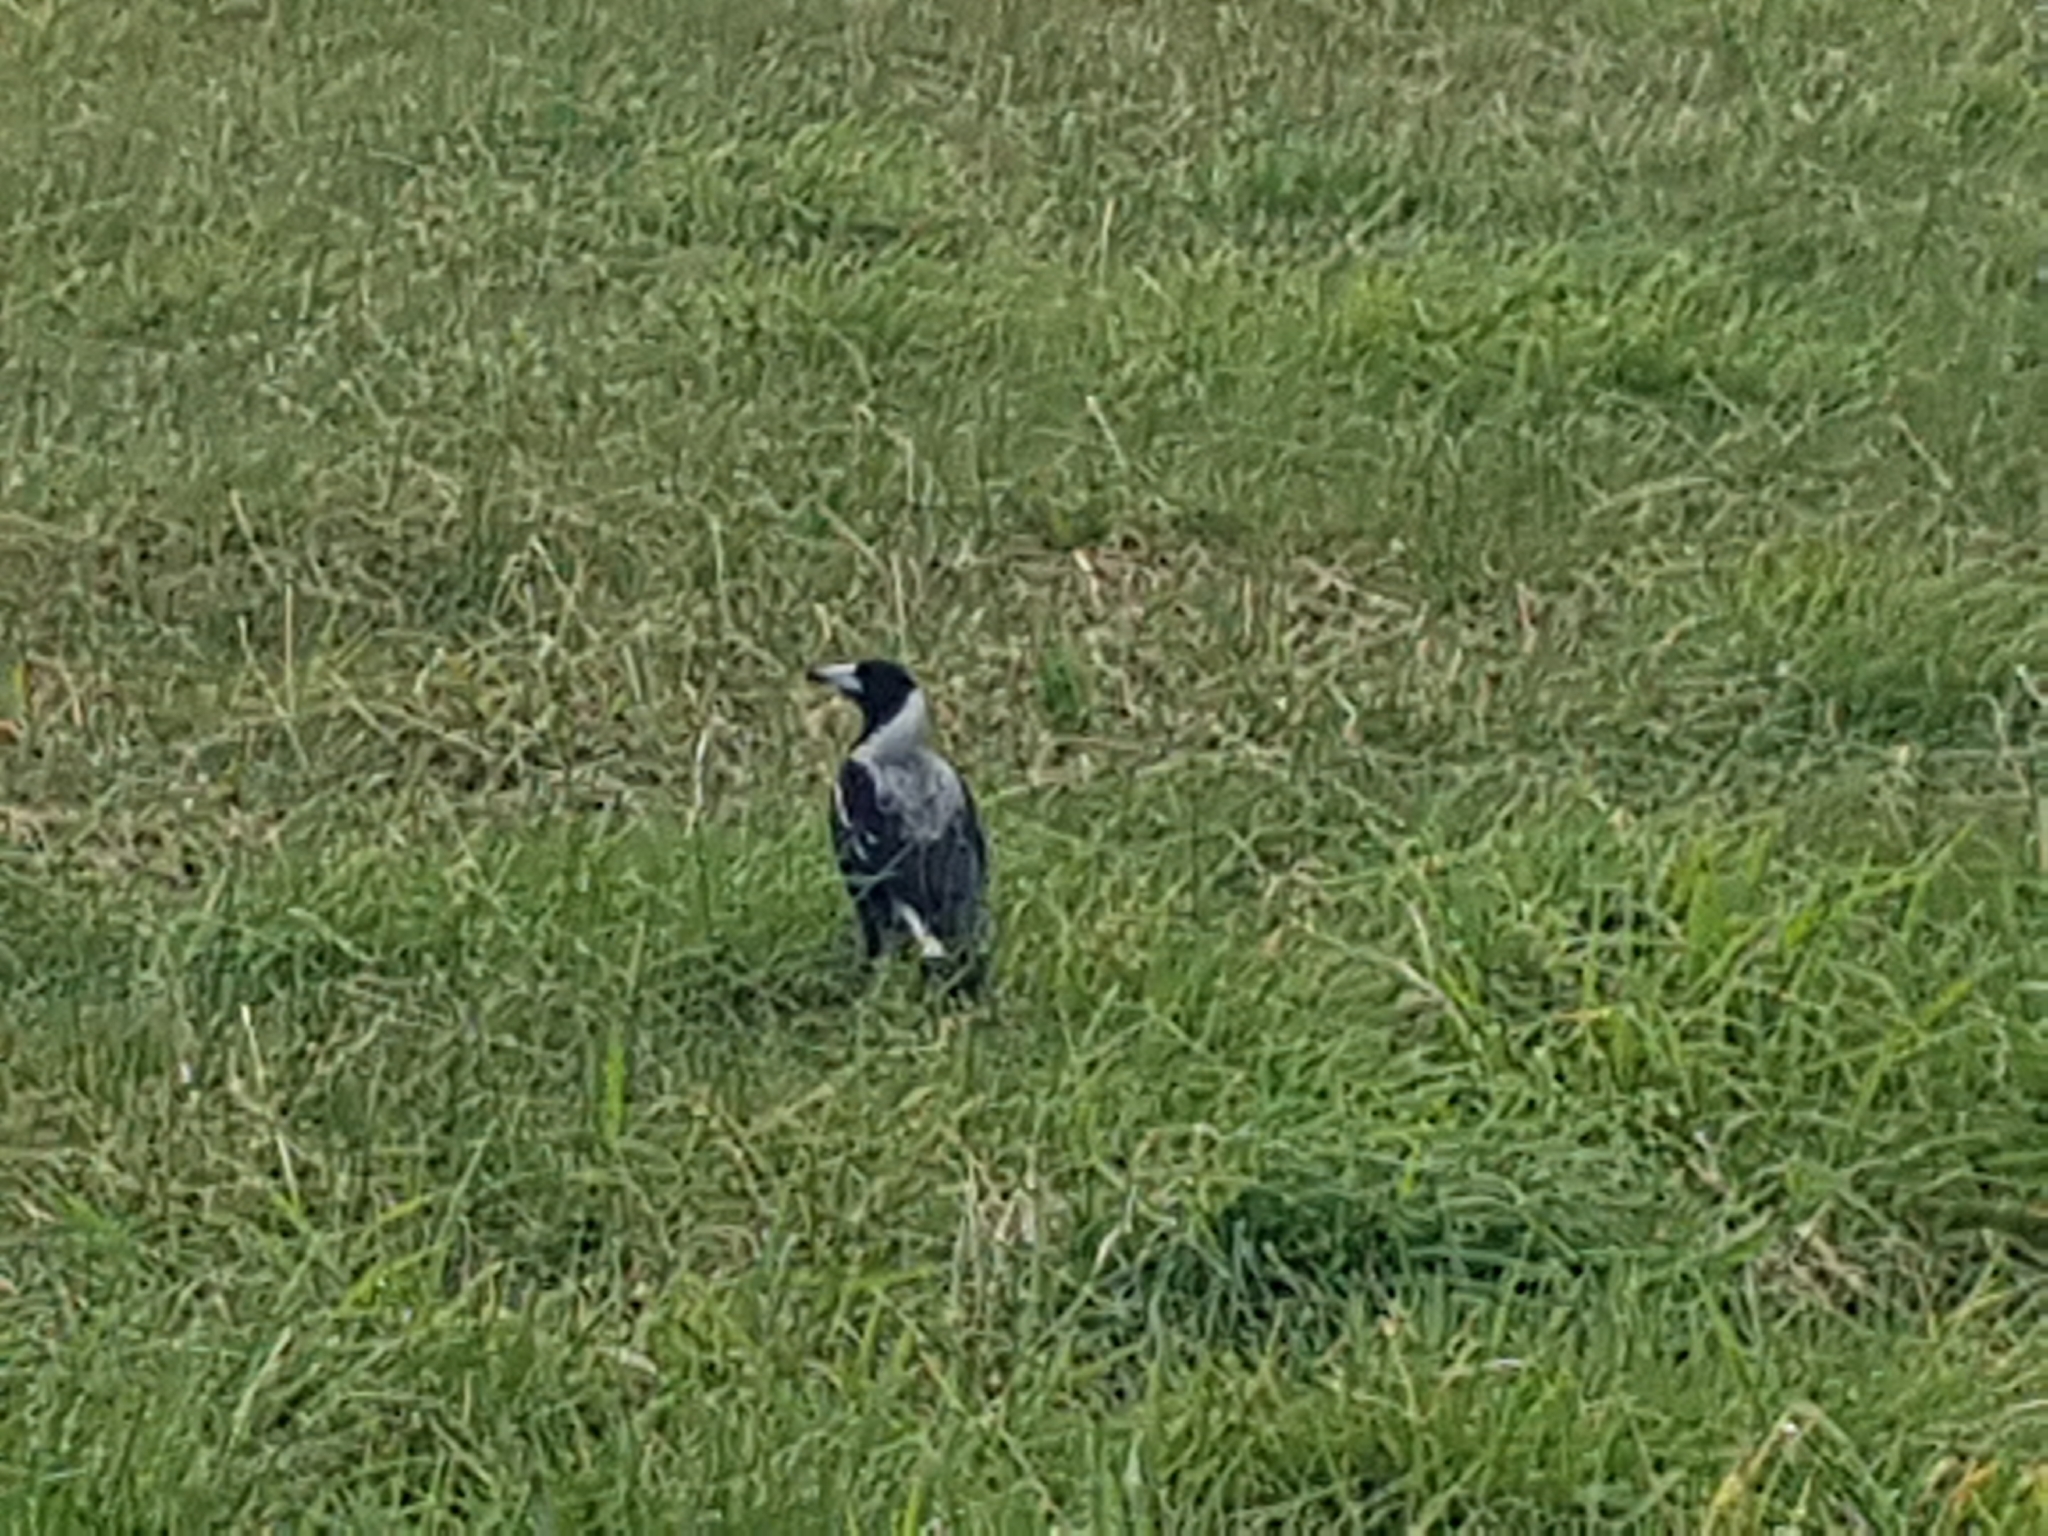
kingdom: Animalia
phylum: Chordata
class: Aves
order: Passeriformes
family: Cracticidae
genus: Gymnorhina
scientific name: Gymnorhina tibicen
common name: Australian magpie
